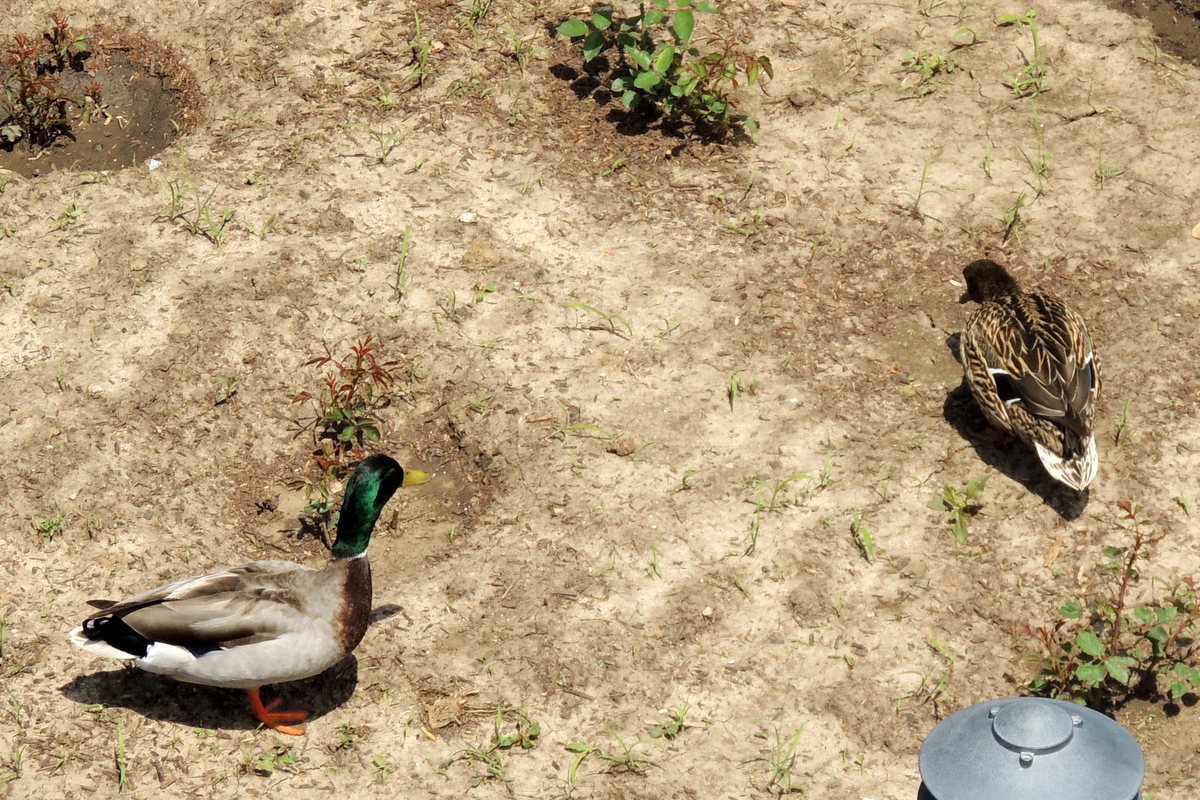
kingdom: Animalia
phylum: Chordata
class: Aves
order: Anseriformes
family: Anatidae
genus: Anas
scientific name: Anas platyrhynchos
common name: Mallard
